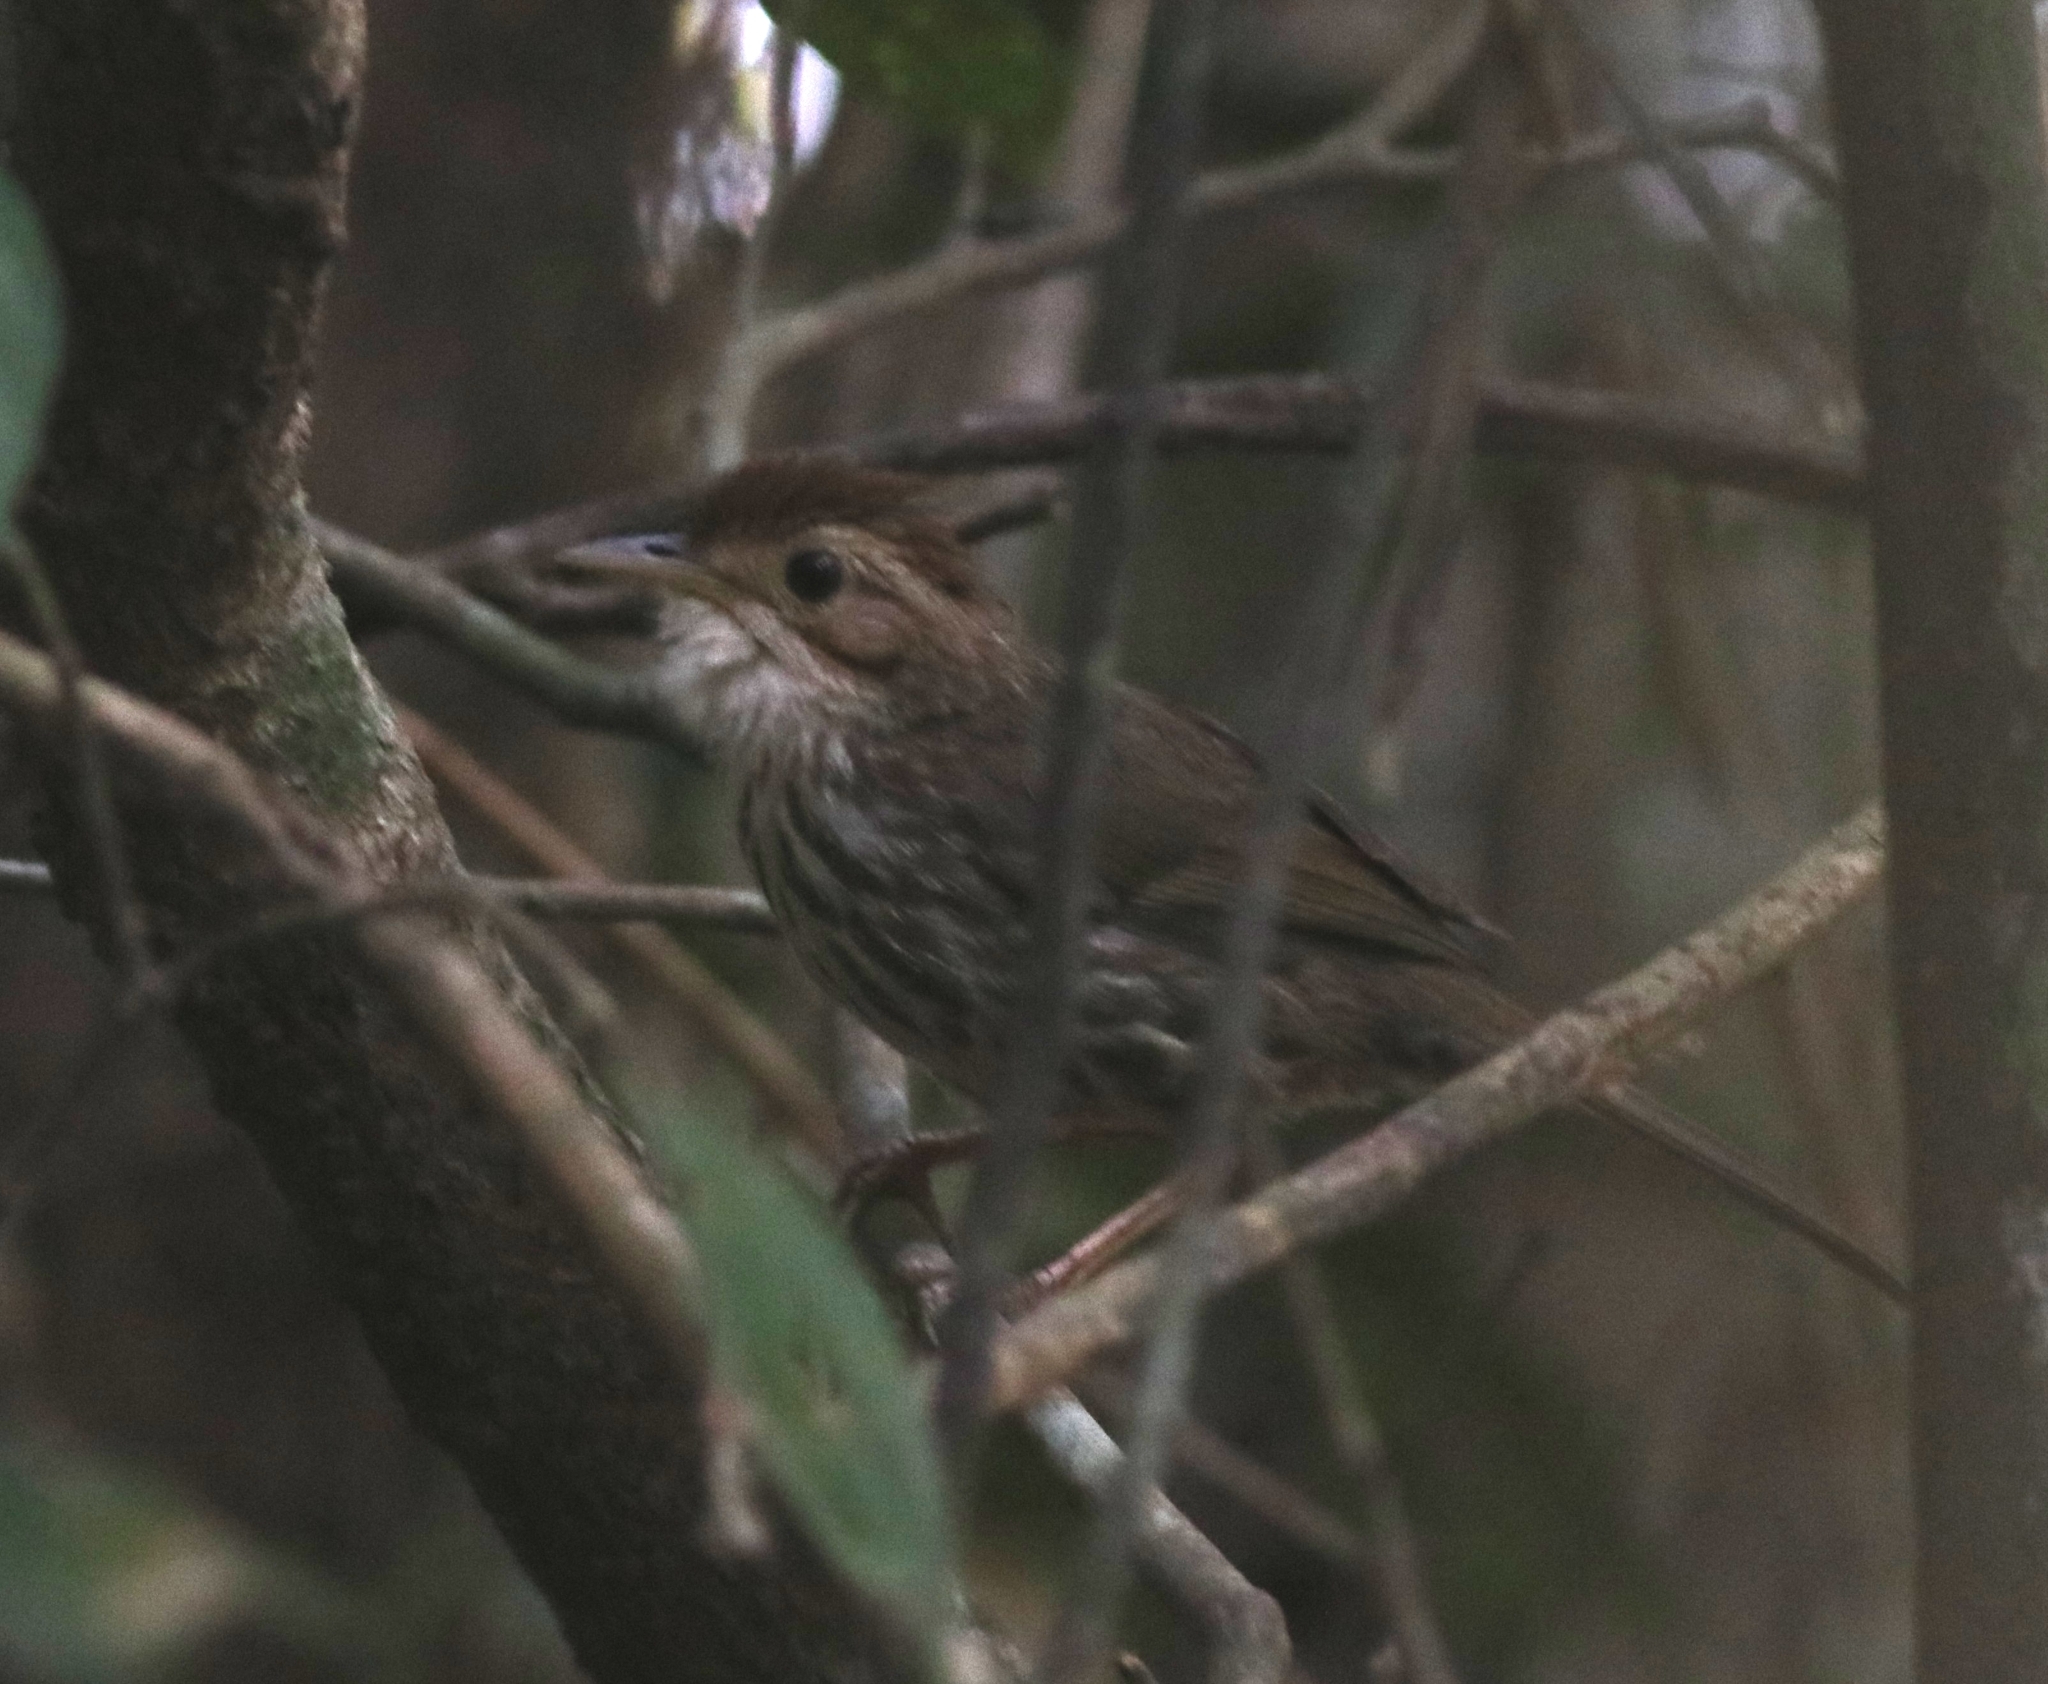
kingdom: Animalia
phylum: Chordata
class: Aves
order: Passeriformes
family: Pellorneidae
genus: Pellorneum
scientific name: Pellorneum ruficeps
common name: Puff-throated babbler
